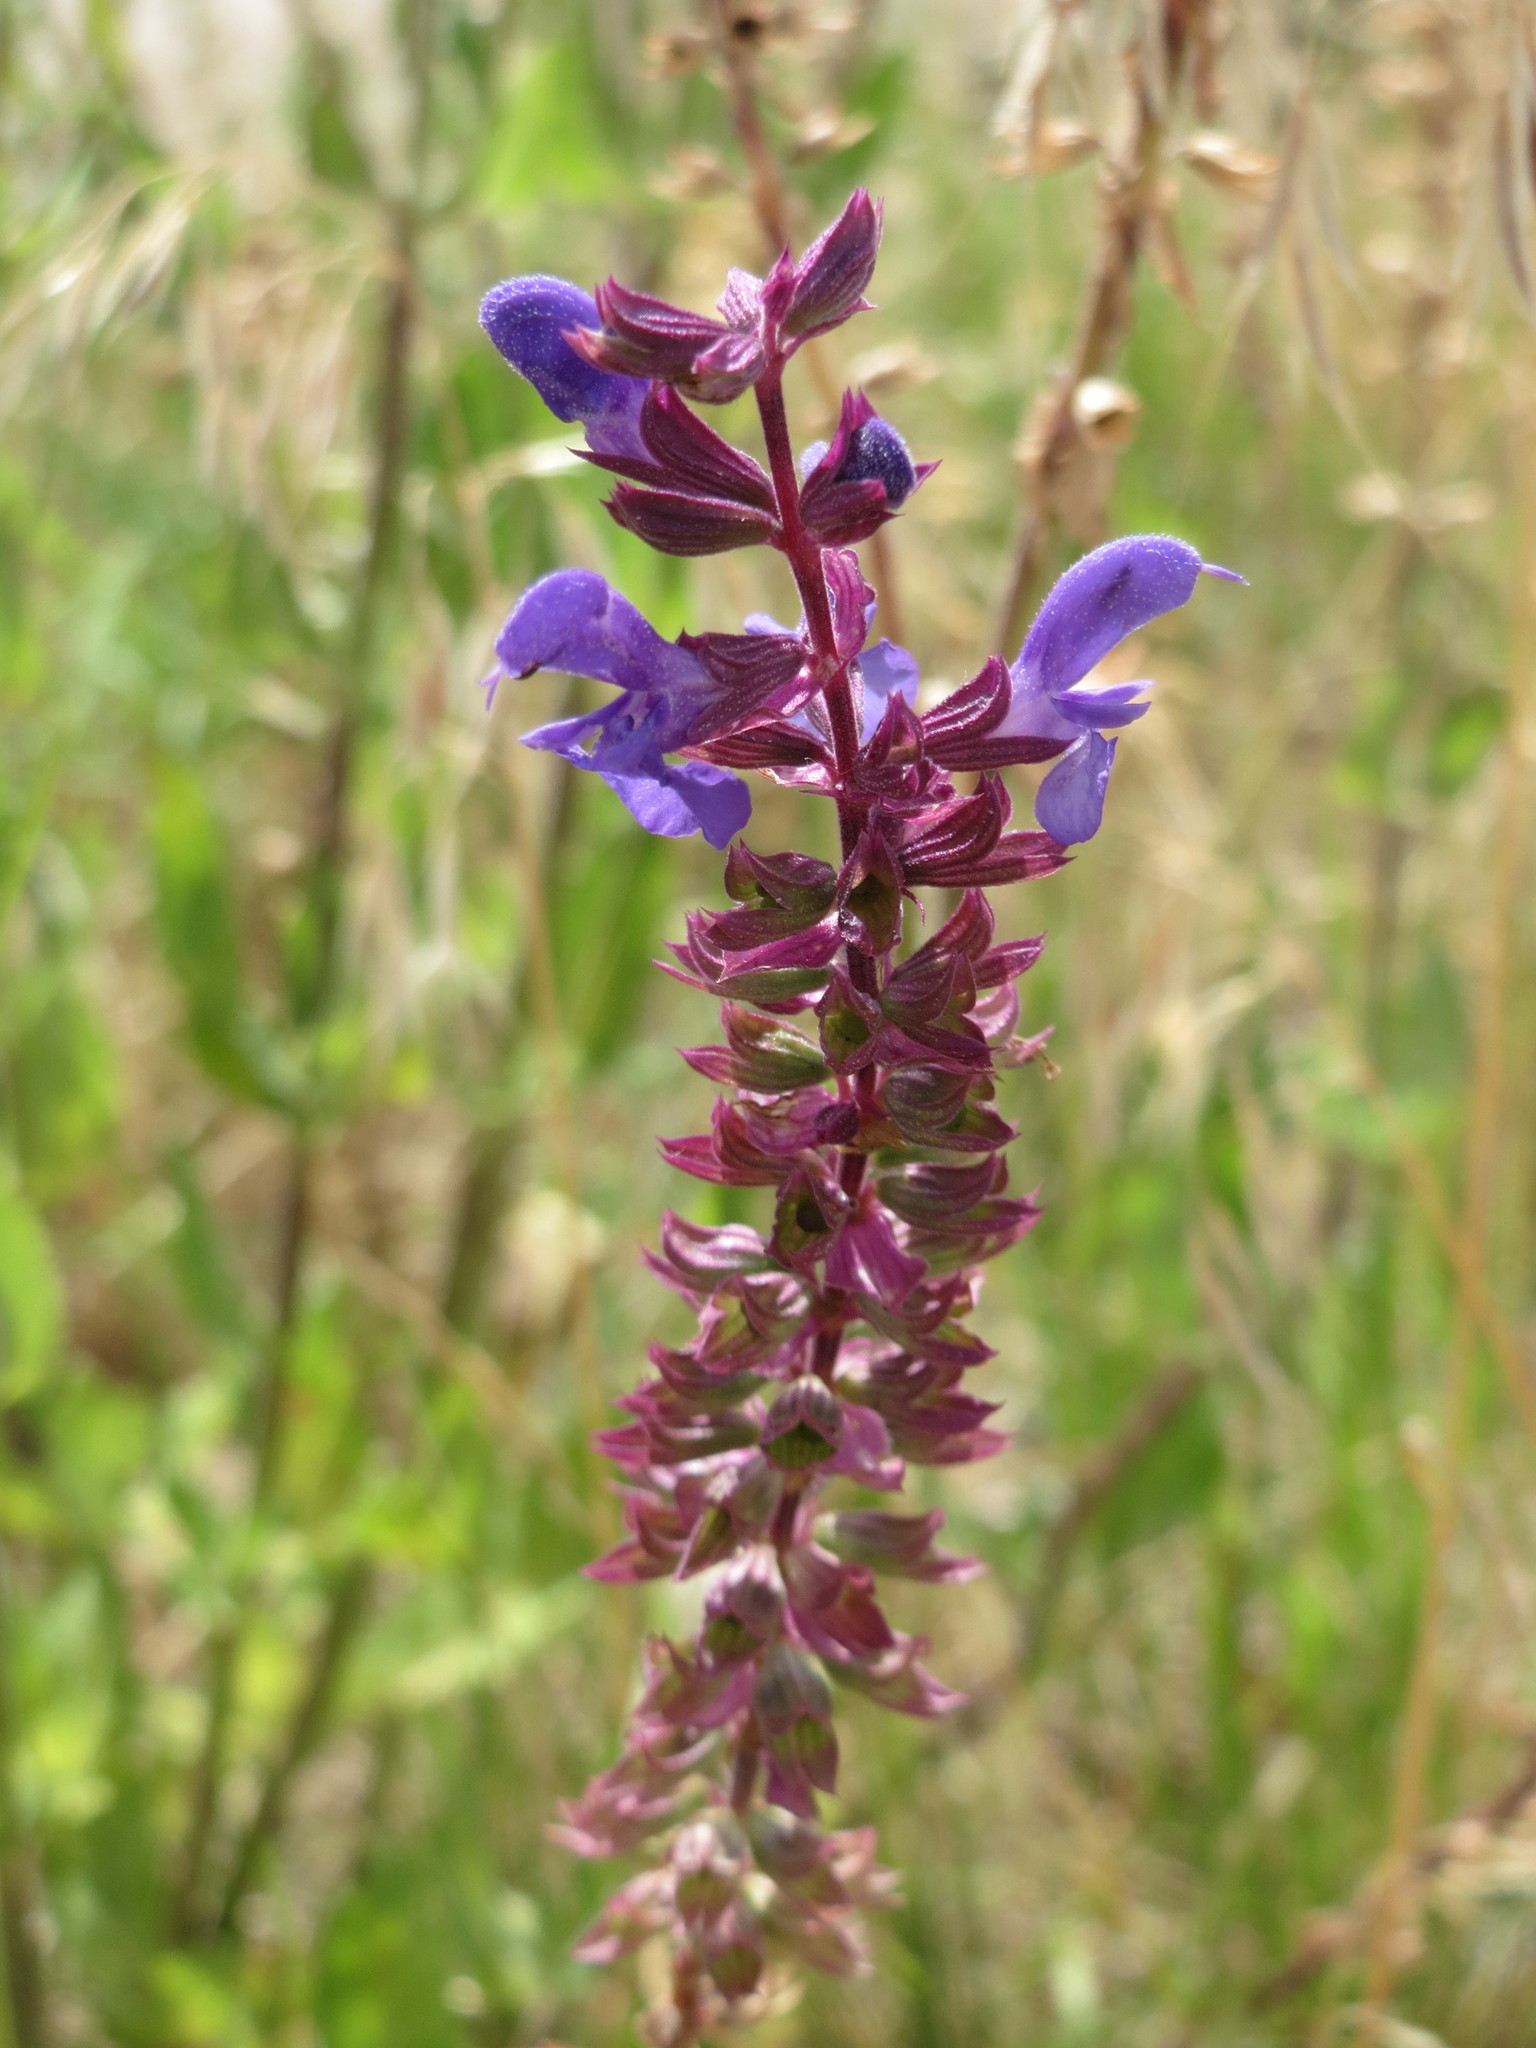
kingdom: Plantae
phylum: Tracheophyta
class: Magnoliopsida
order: Lamiales
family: Lamiaceae
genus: Salvia
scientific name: Salvia nemorosa
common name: Balkan clary
